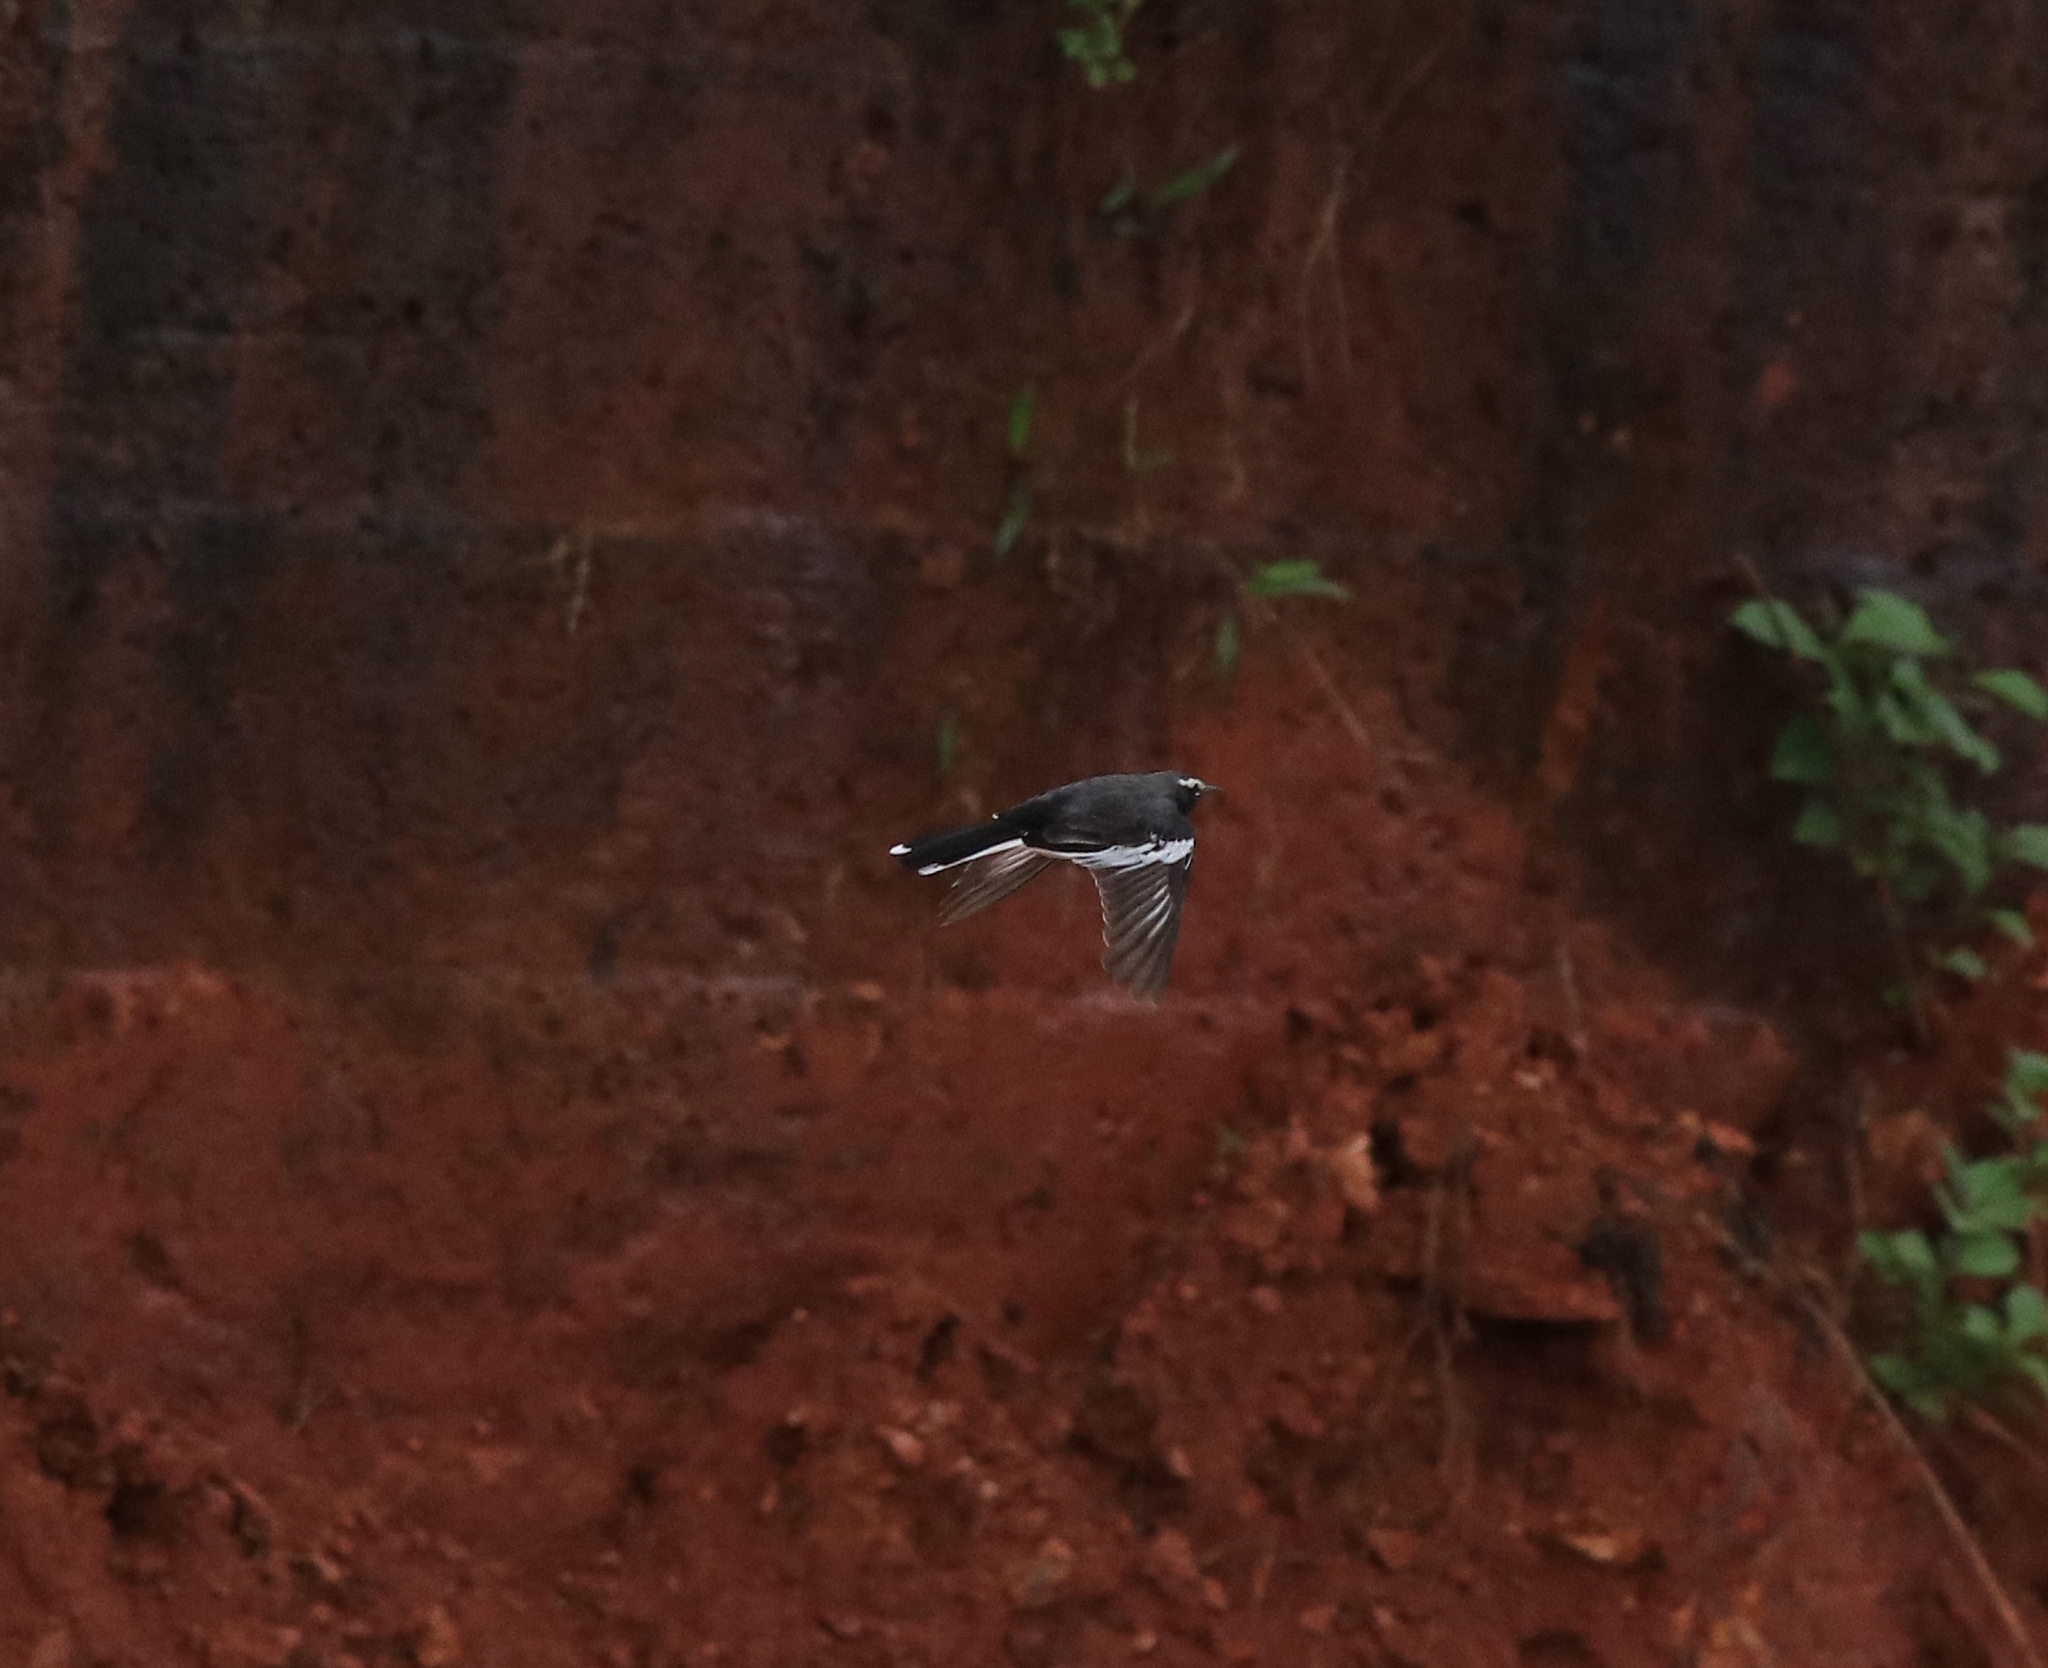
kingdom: Animalia
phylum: Chordata
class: Aves
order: Passeriformes
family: Motacillidae
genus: Motacilla
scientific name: Motacilla maderaspatensis
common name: White-browed wagtail
